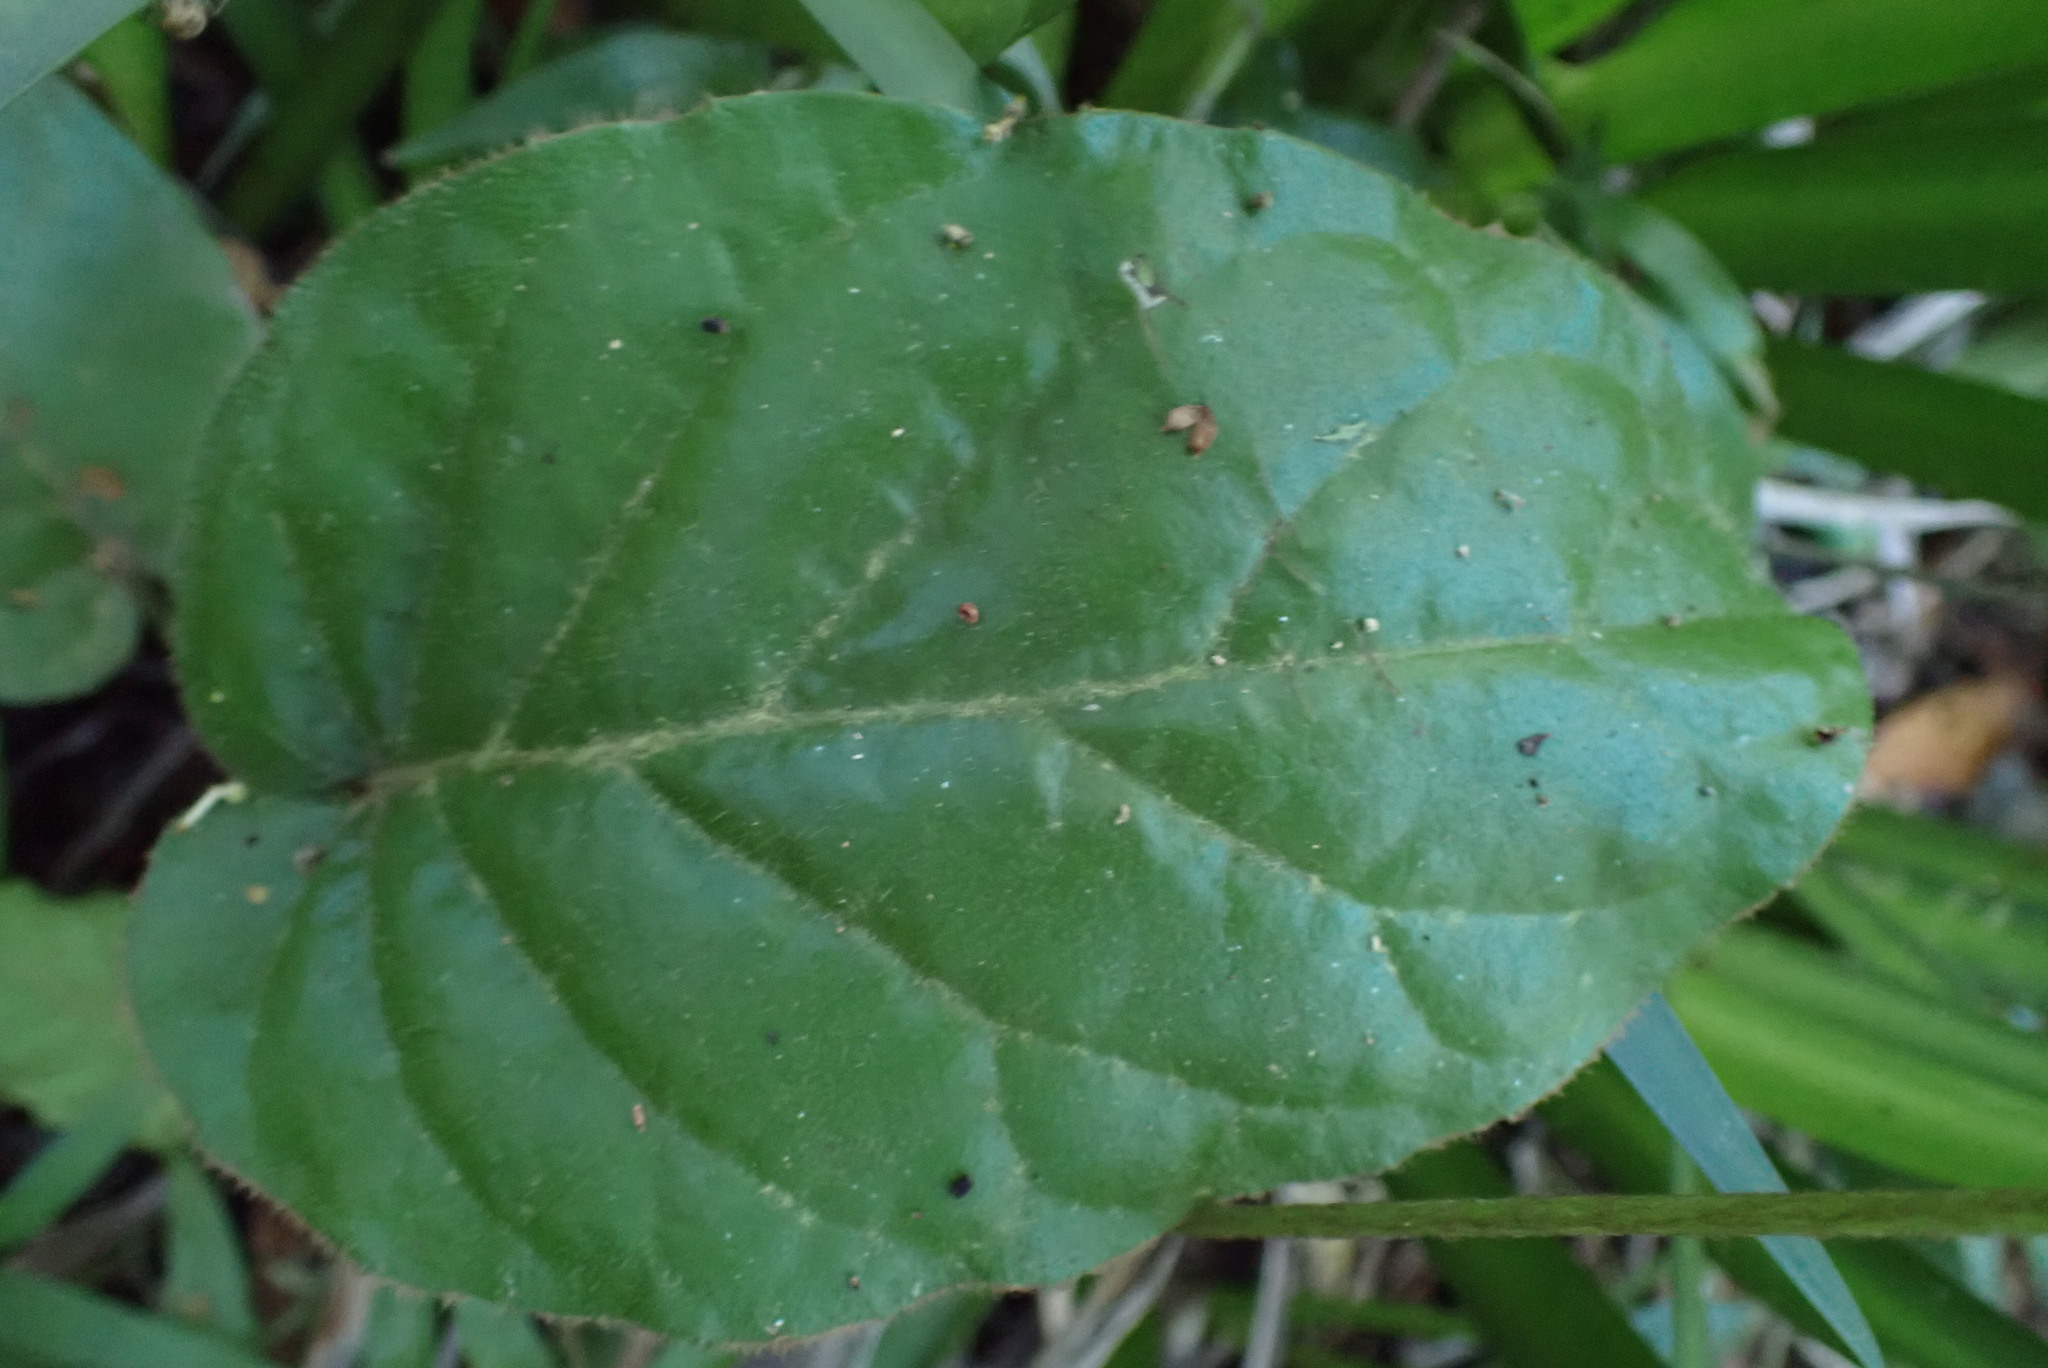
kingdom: Plantae
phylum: Tracheophyta
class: Magnoliopsida
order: Asterales
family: Asteraceae
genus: Piloselloides
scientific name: Piloselloides cordata
